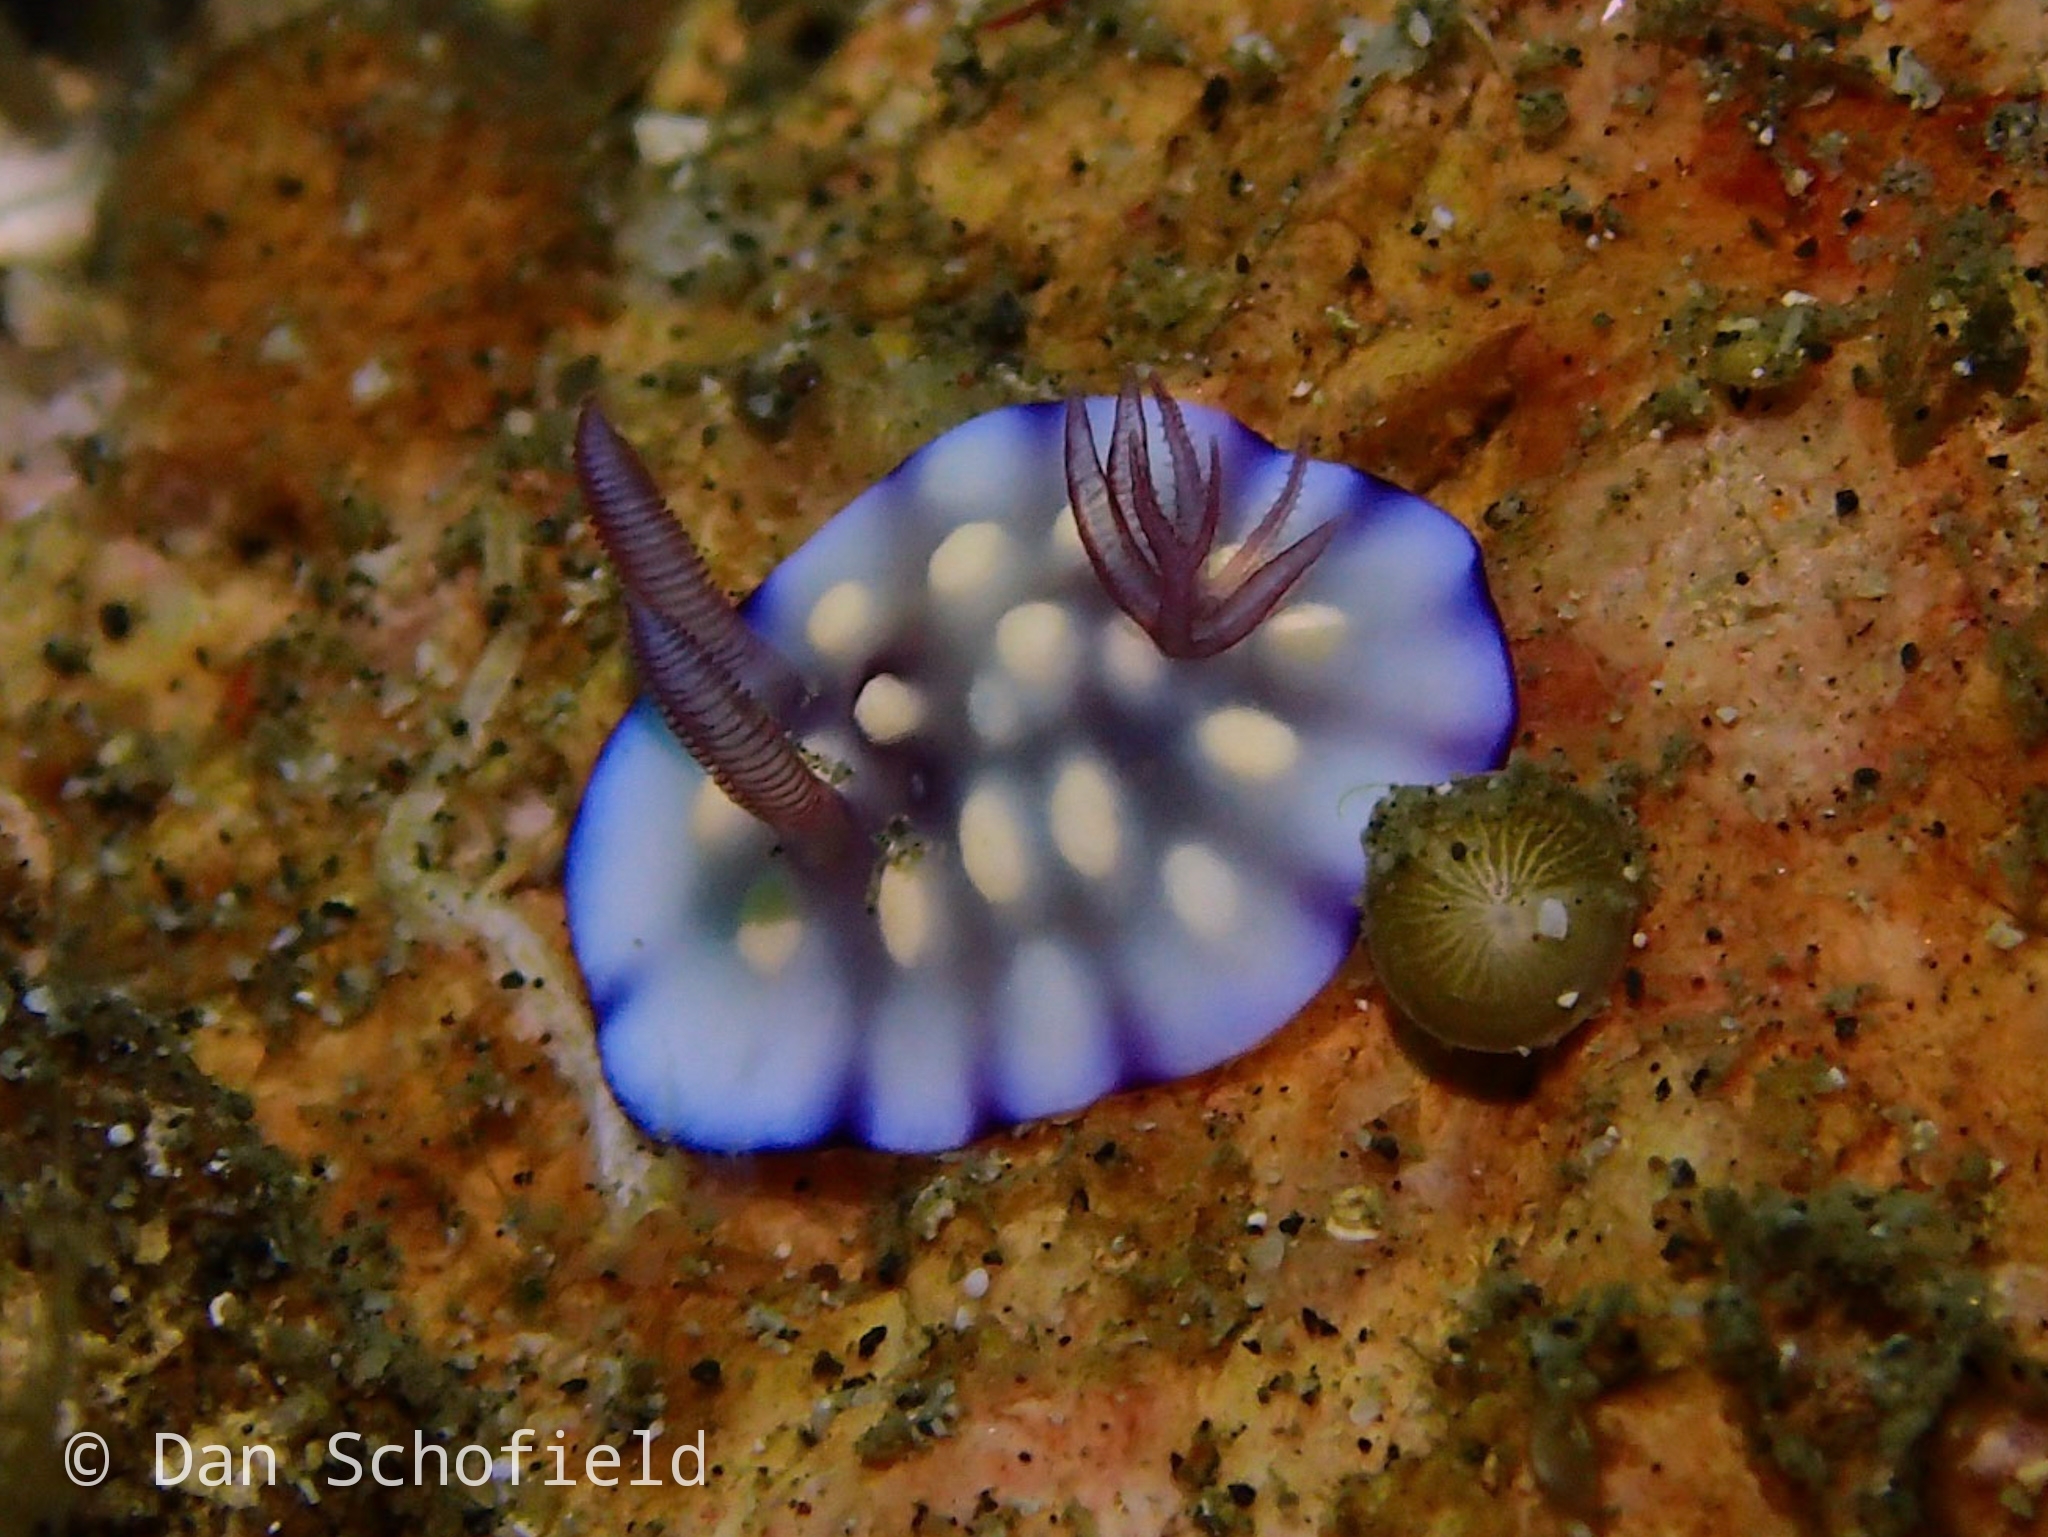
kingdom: Animalia
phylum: Mollusca
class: Gastropoda
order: Nudibranchia
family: Chromodorididae
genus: Goniobranchus
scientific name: Goniobranchus hintuanensis
